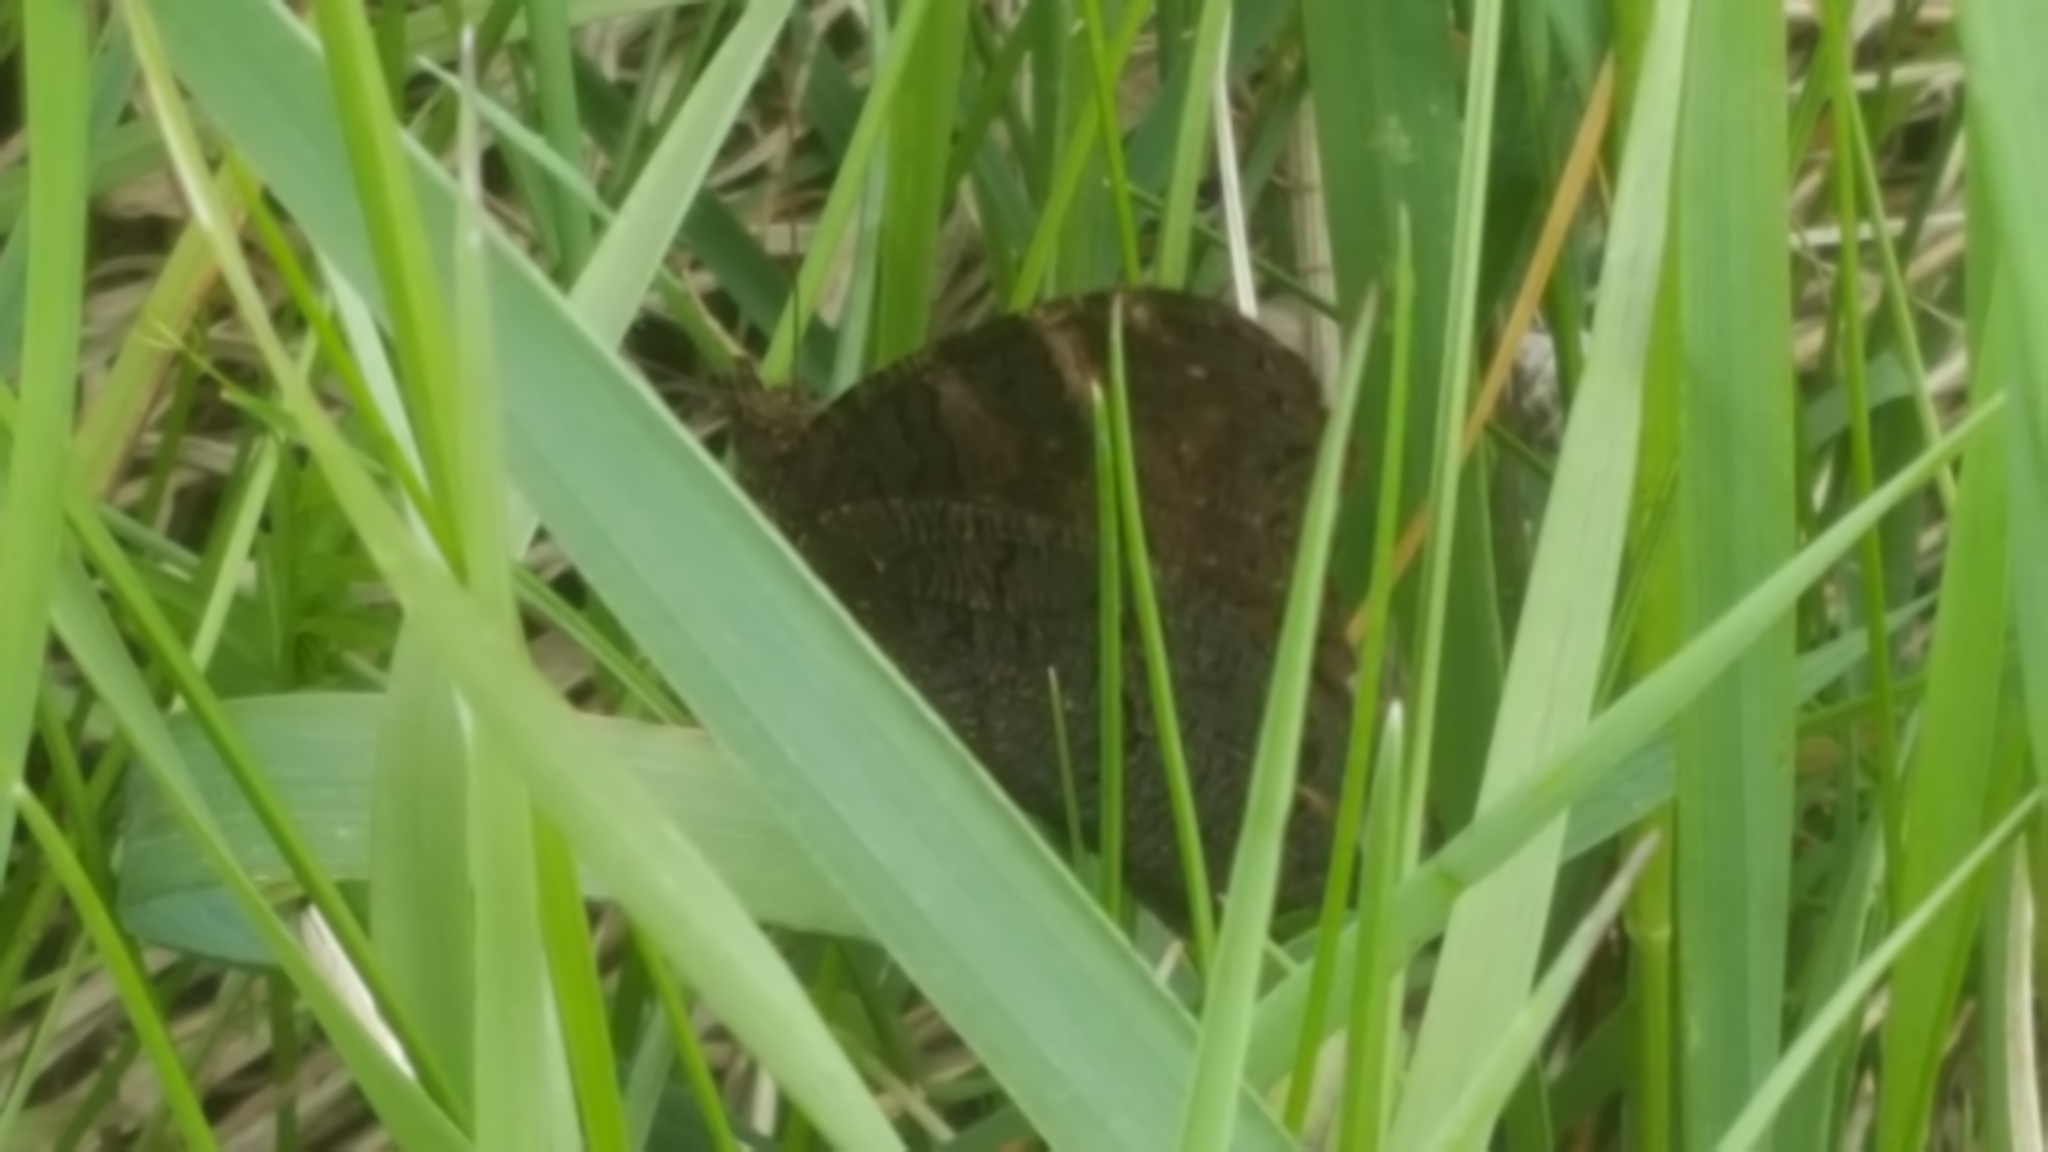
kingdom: Animalia
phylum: Arthropoda
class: Insecta
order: Lepidoptera
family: Nymphalidae
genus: Aglais
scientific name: Aglais io
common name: Peacock
